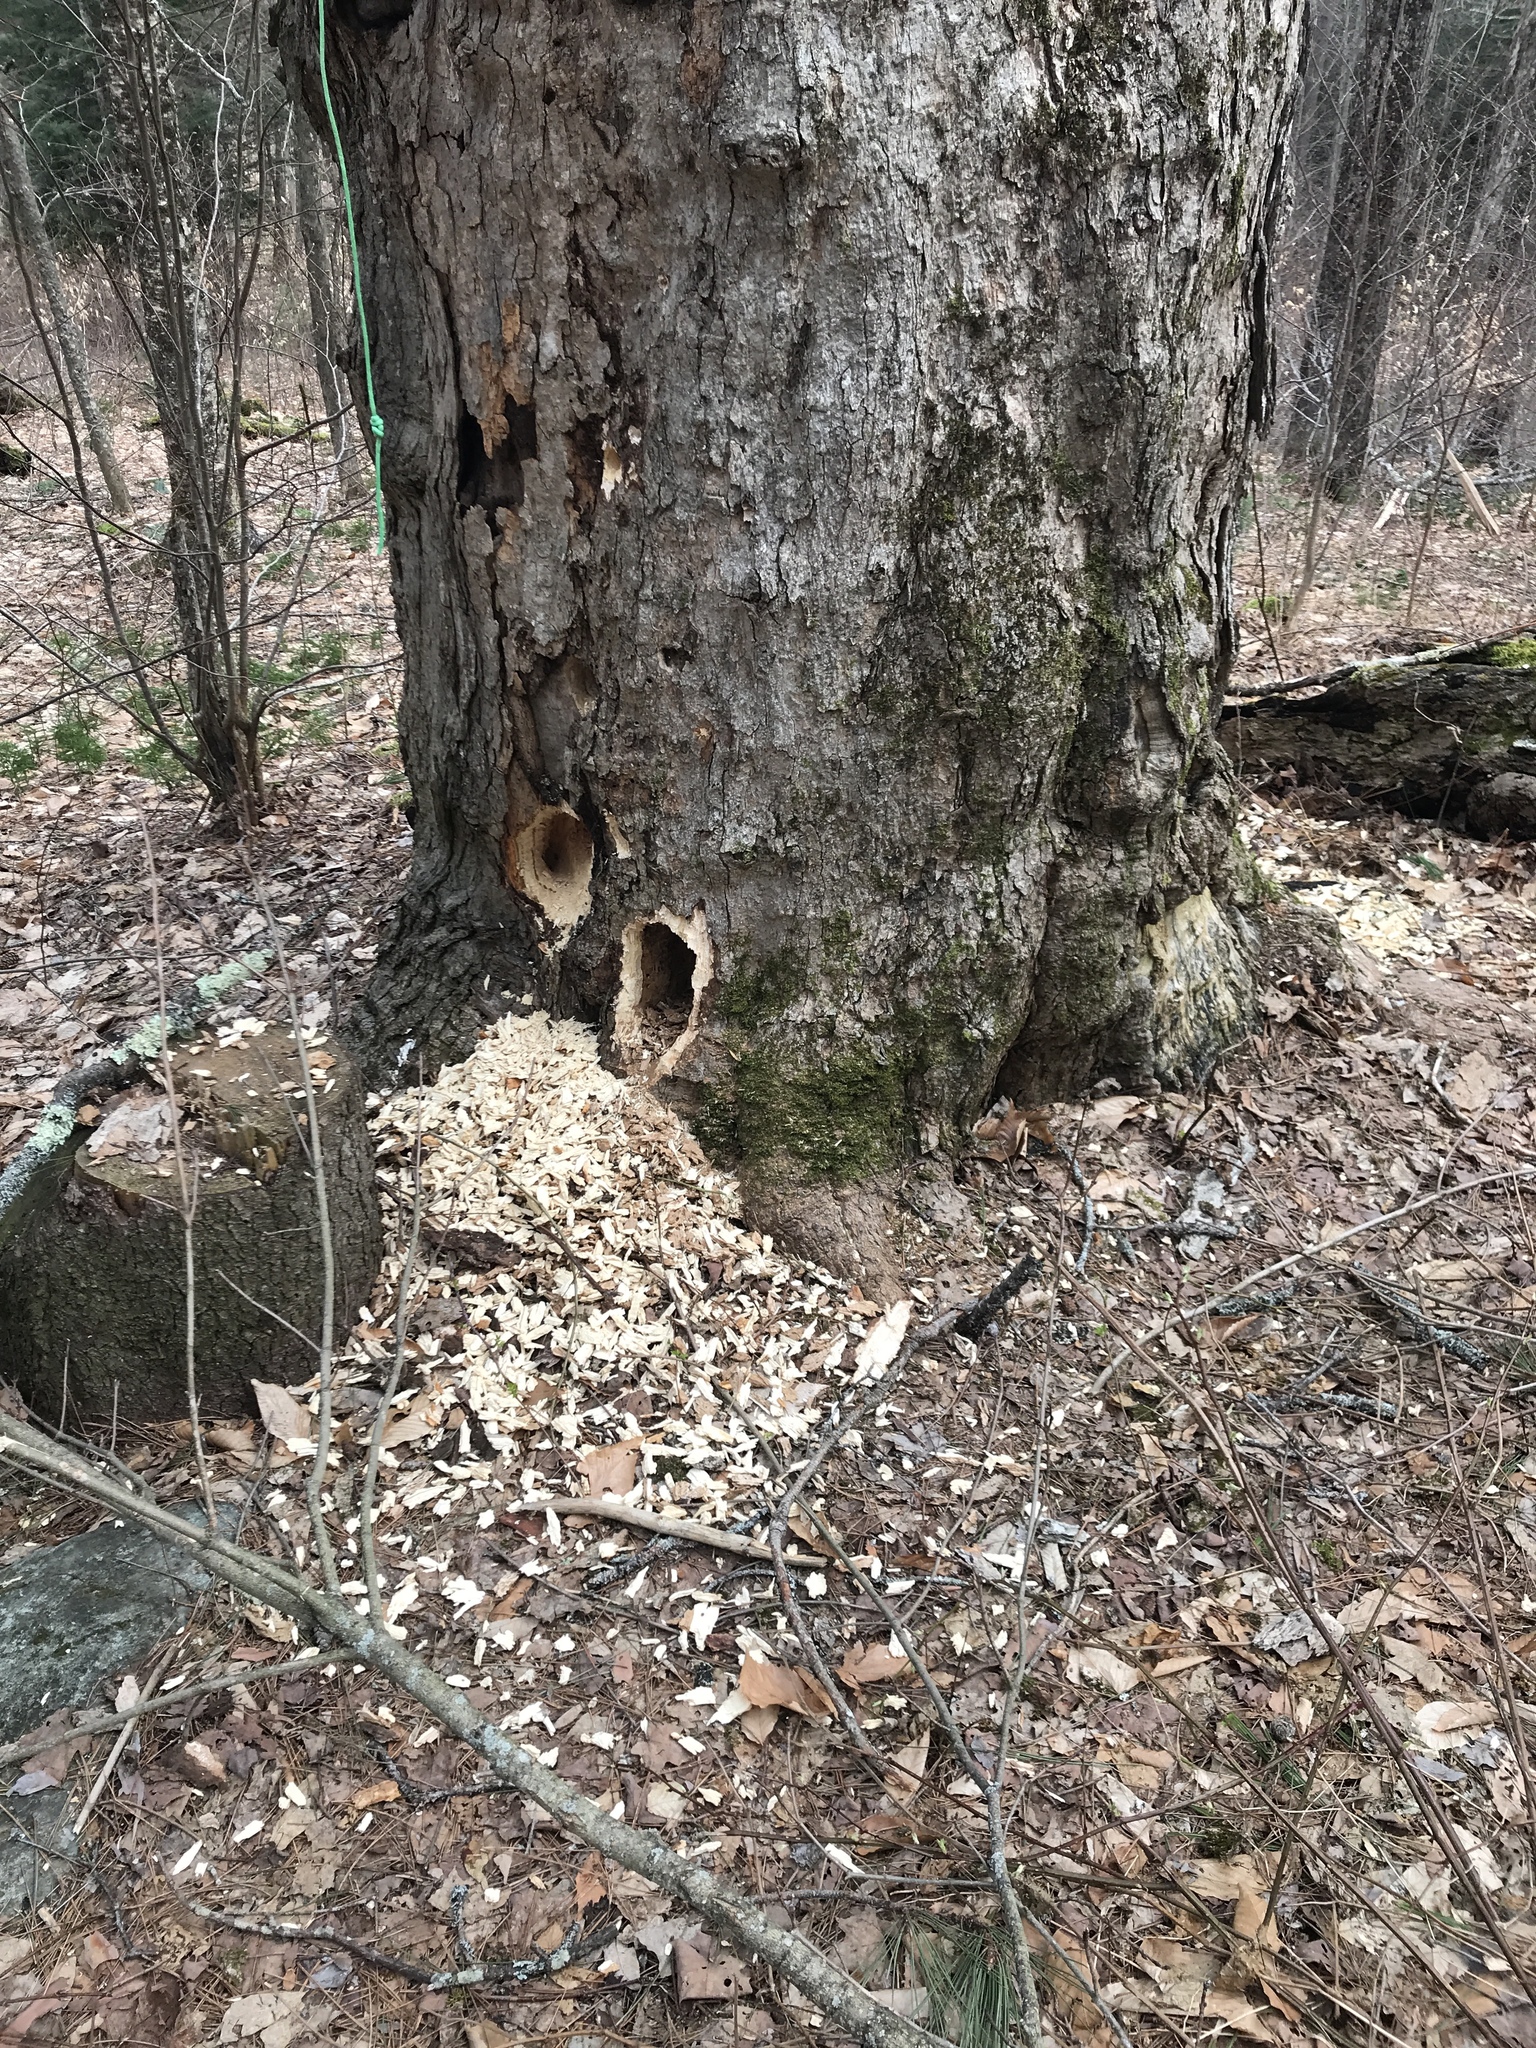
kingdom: Animalia
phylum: Chordata
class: Aves
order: Piciformes
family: Picidae
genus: Dryocopus
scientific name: Dryocopus pileatus
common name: Pileated woodpecker
